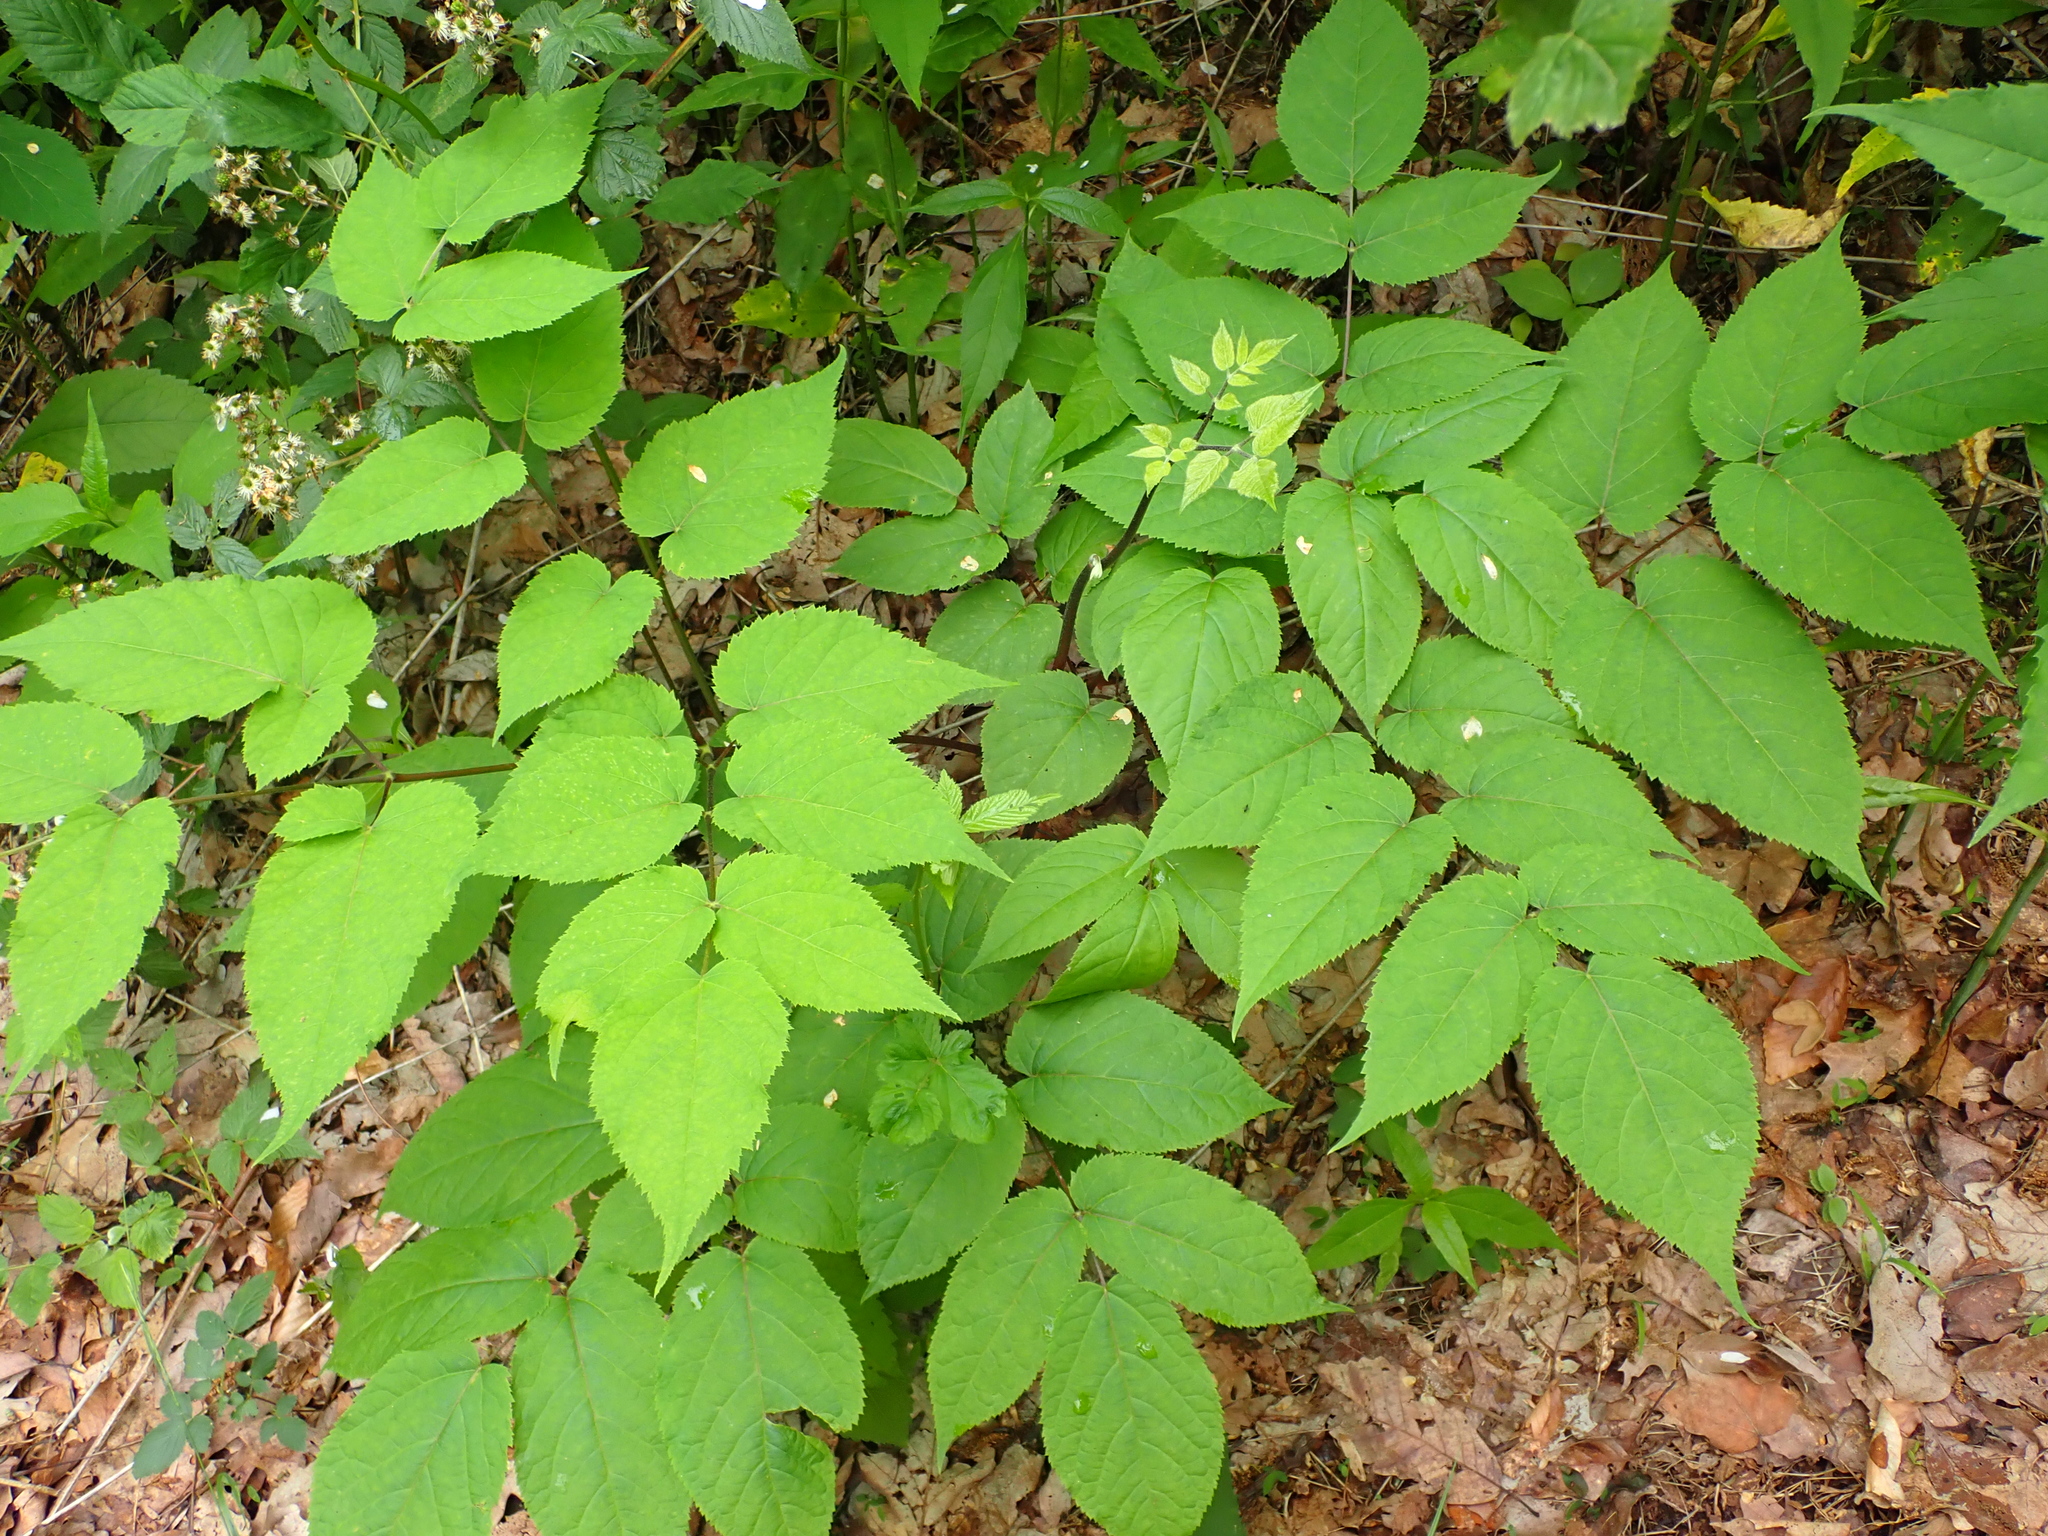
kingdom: Plantae
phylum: Tracheophyta
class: Magnoliopsida
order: Apiales
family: Araliaceae
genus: Aralia
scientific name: Aralia racemosa
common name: American-spikenard
